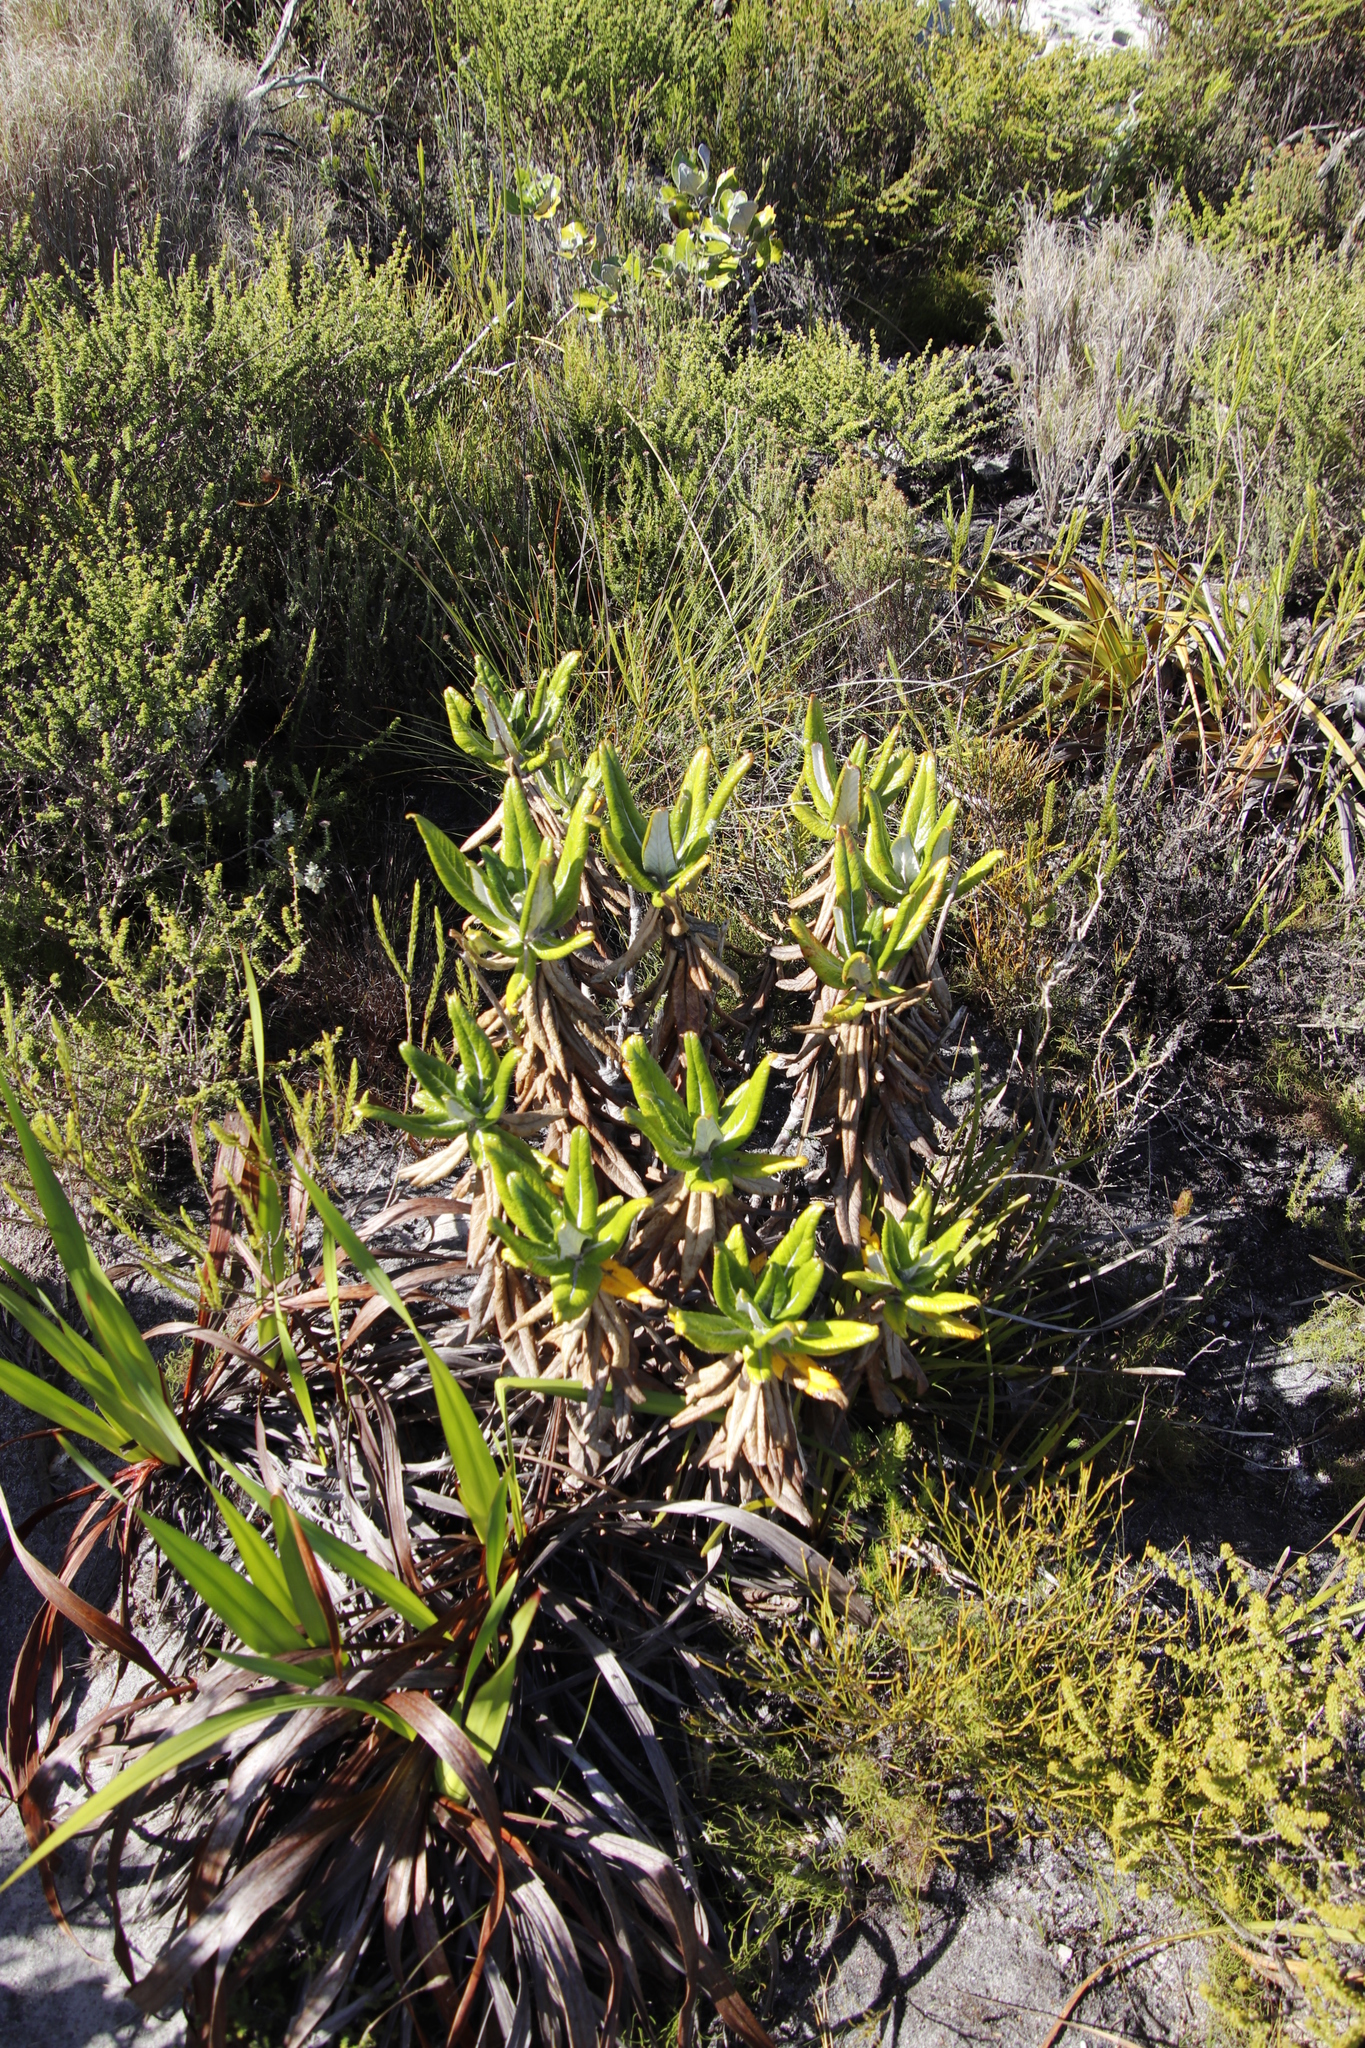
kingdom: Plantae
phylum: Tracheophyta
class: Magnoliopsida
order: Apiales
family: Apiaceae
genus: Hermas
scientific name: Hermas villosa
